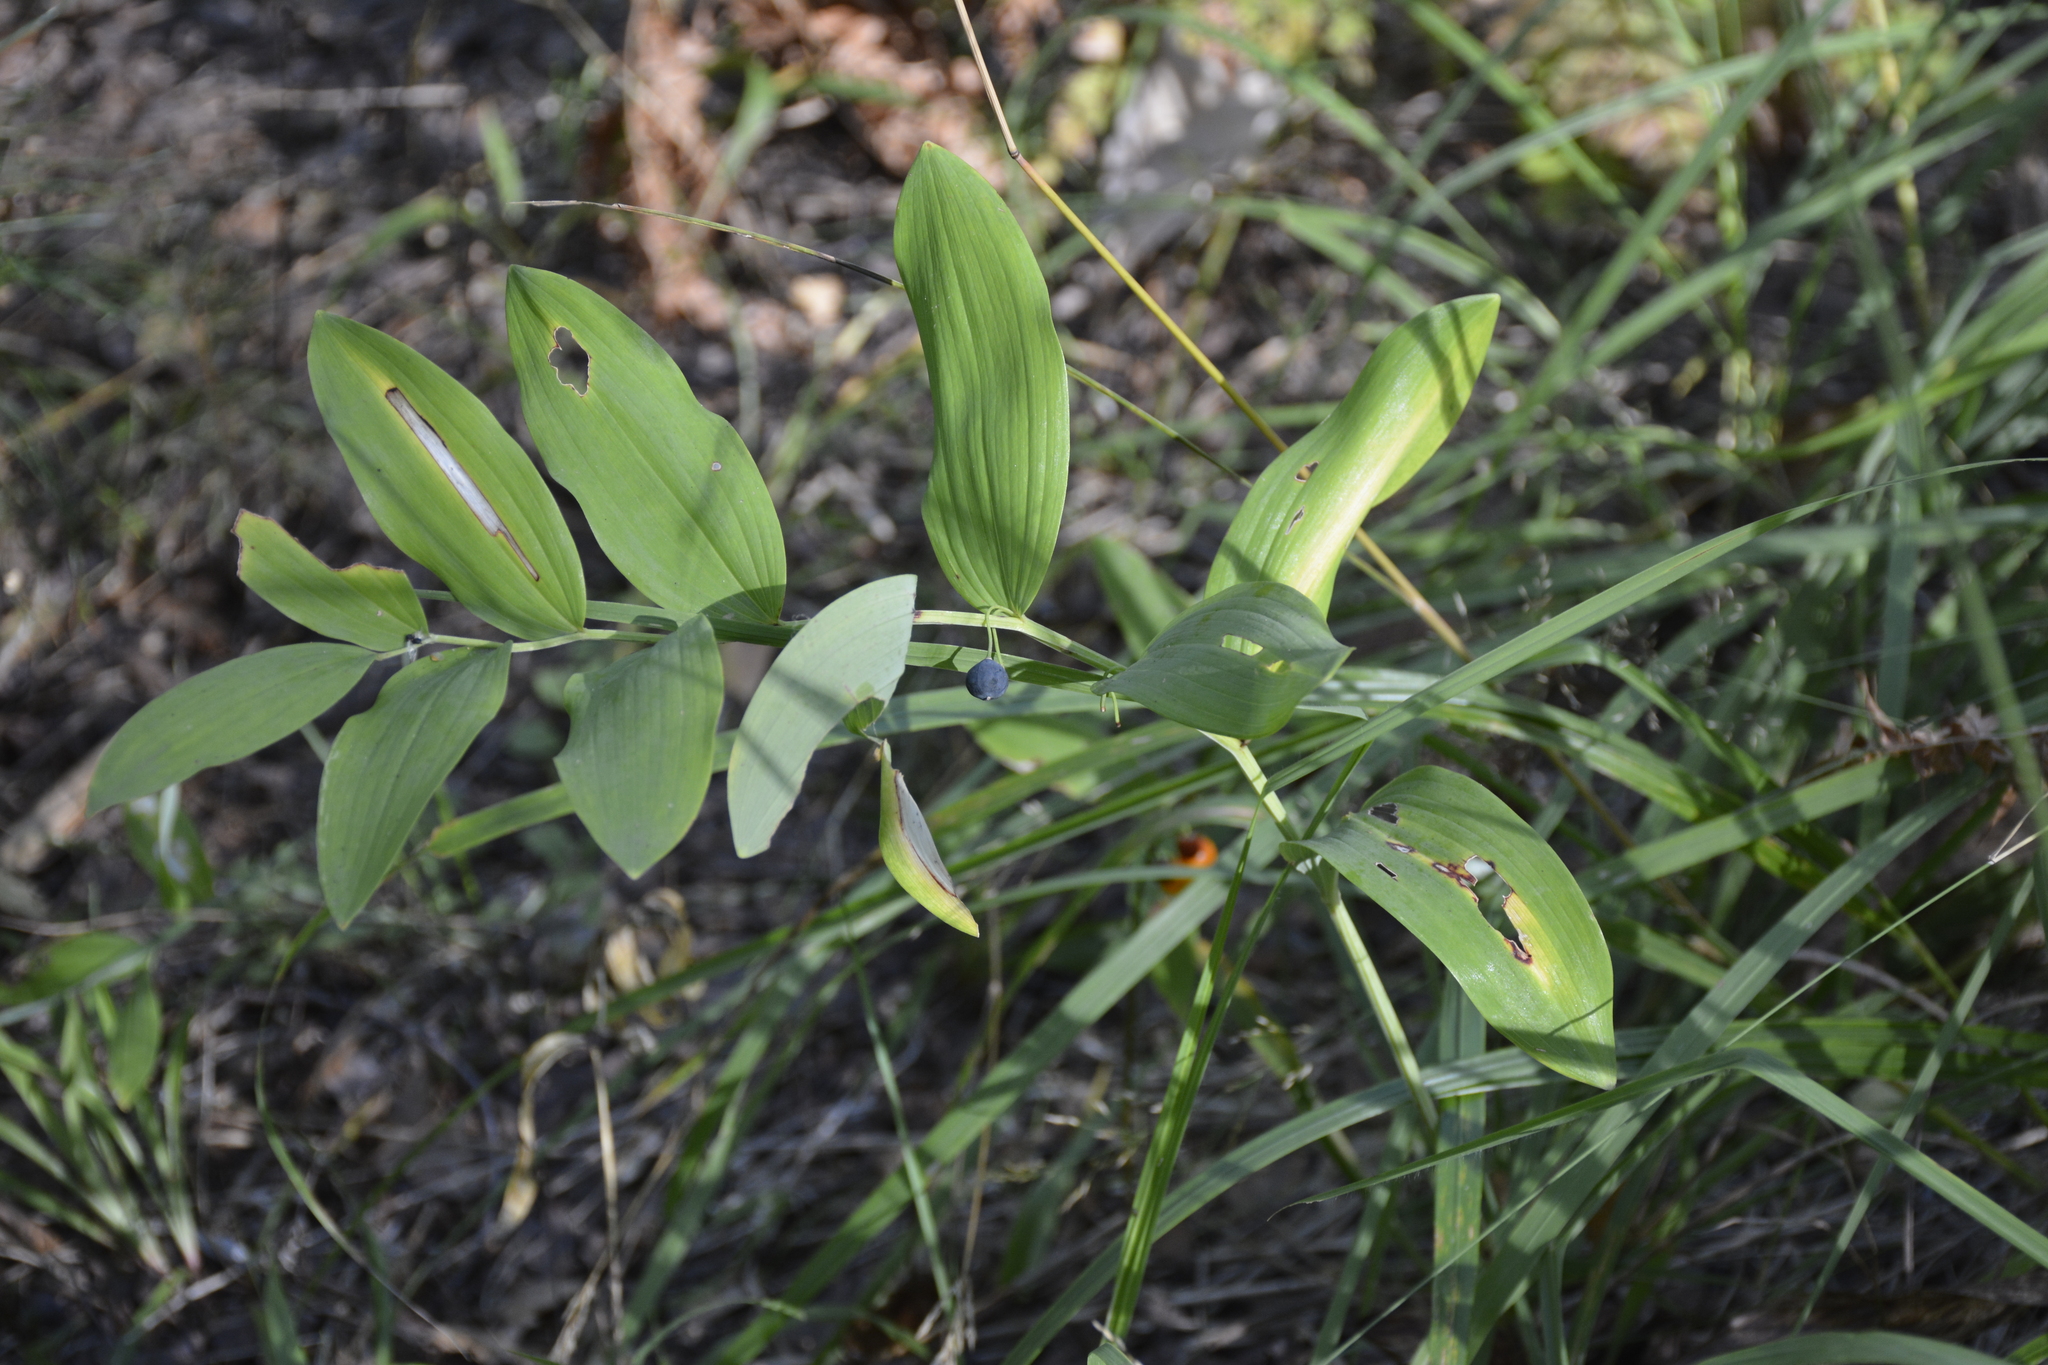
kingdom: Plantae
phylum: Tracheophyta
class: Liliopsida
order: Asparagales
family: Asparagaceae
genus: Polygonatum
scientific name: Polygonatum odoratum
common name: Angular solomon's-seal
